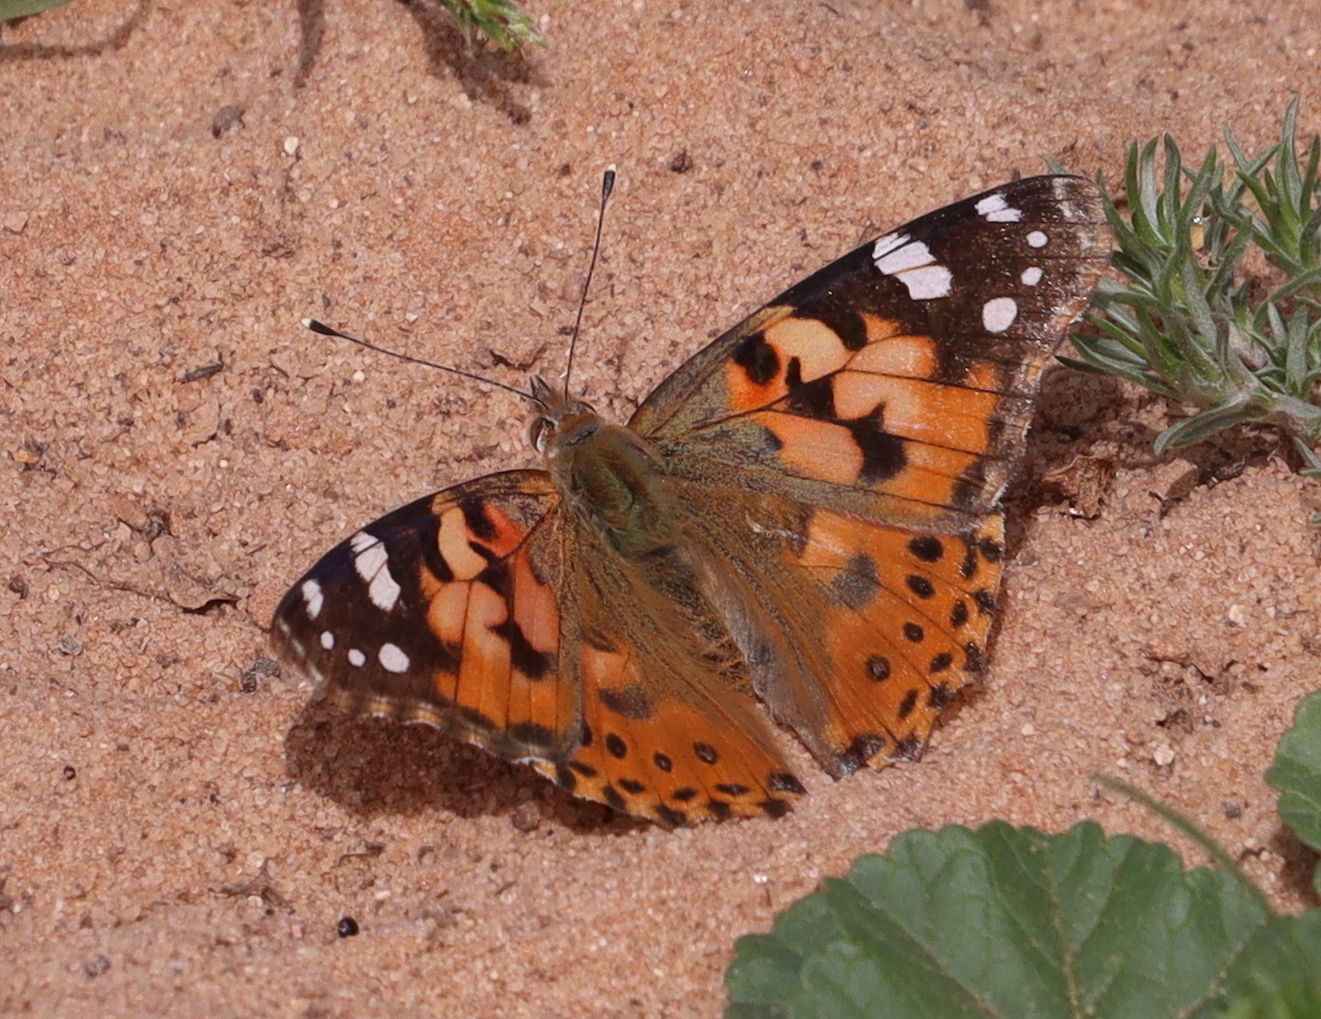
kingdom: Animalia
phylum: Arthropoda
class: Insecta
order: Lepidoptera
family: Nymphalidae
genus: Vanessa
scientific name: Vanessa cardui
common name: Painted lady
